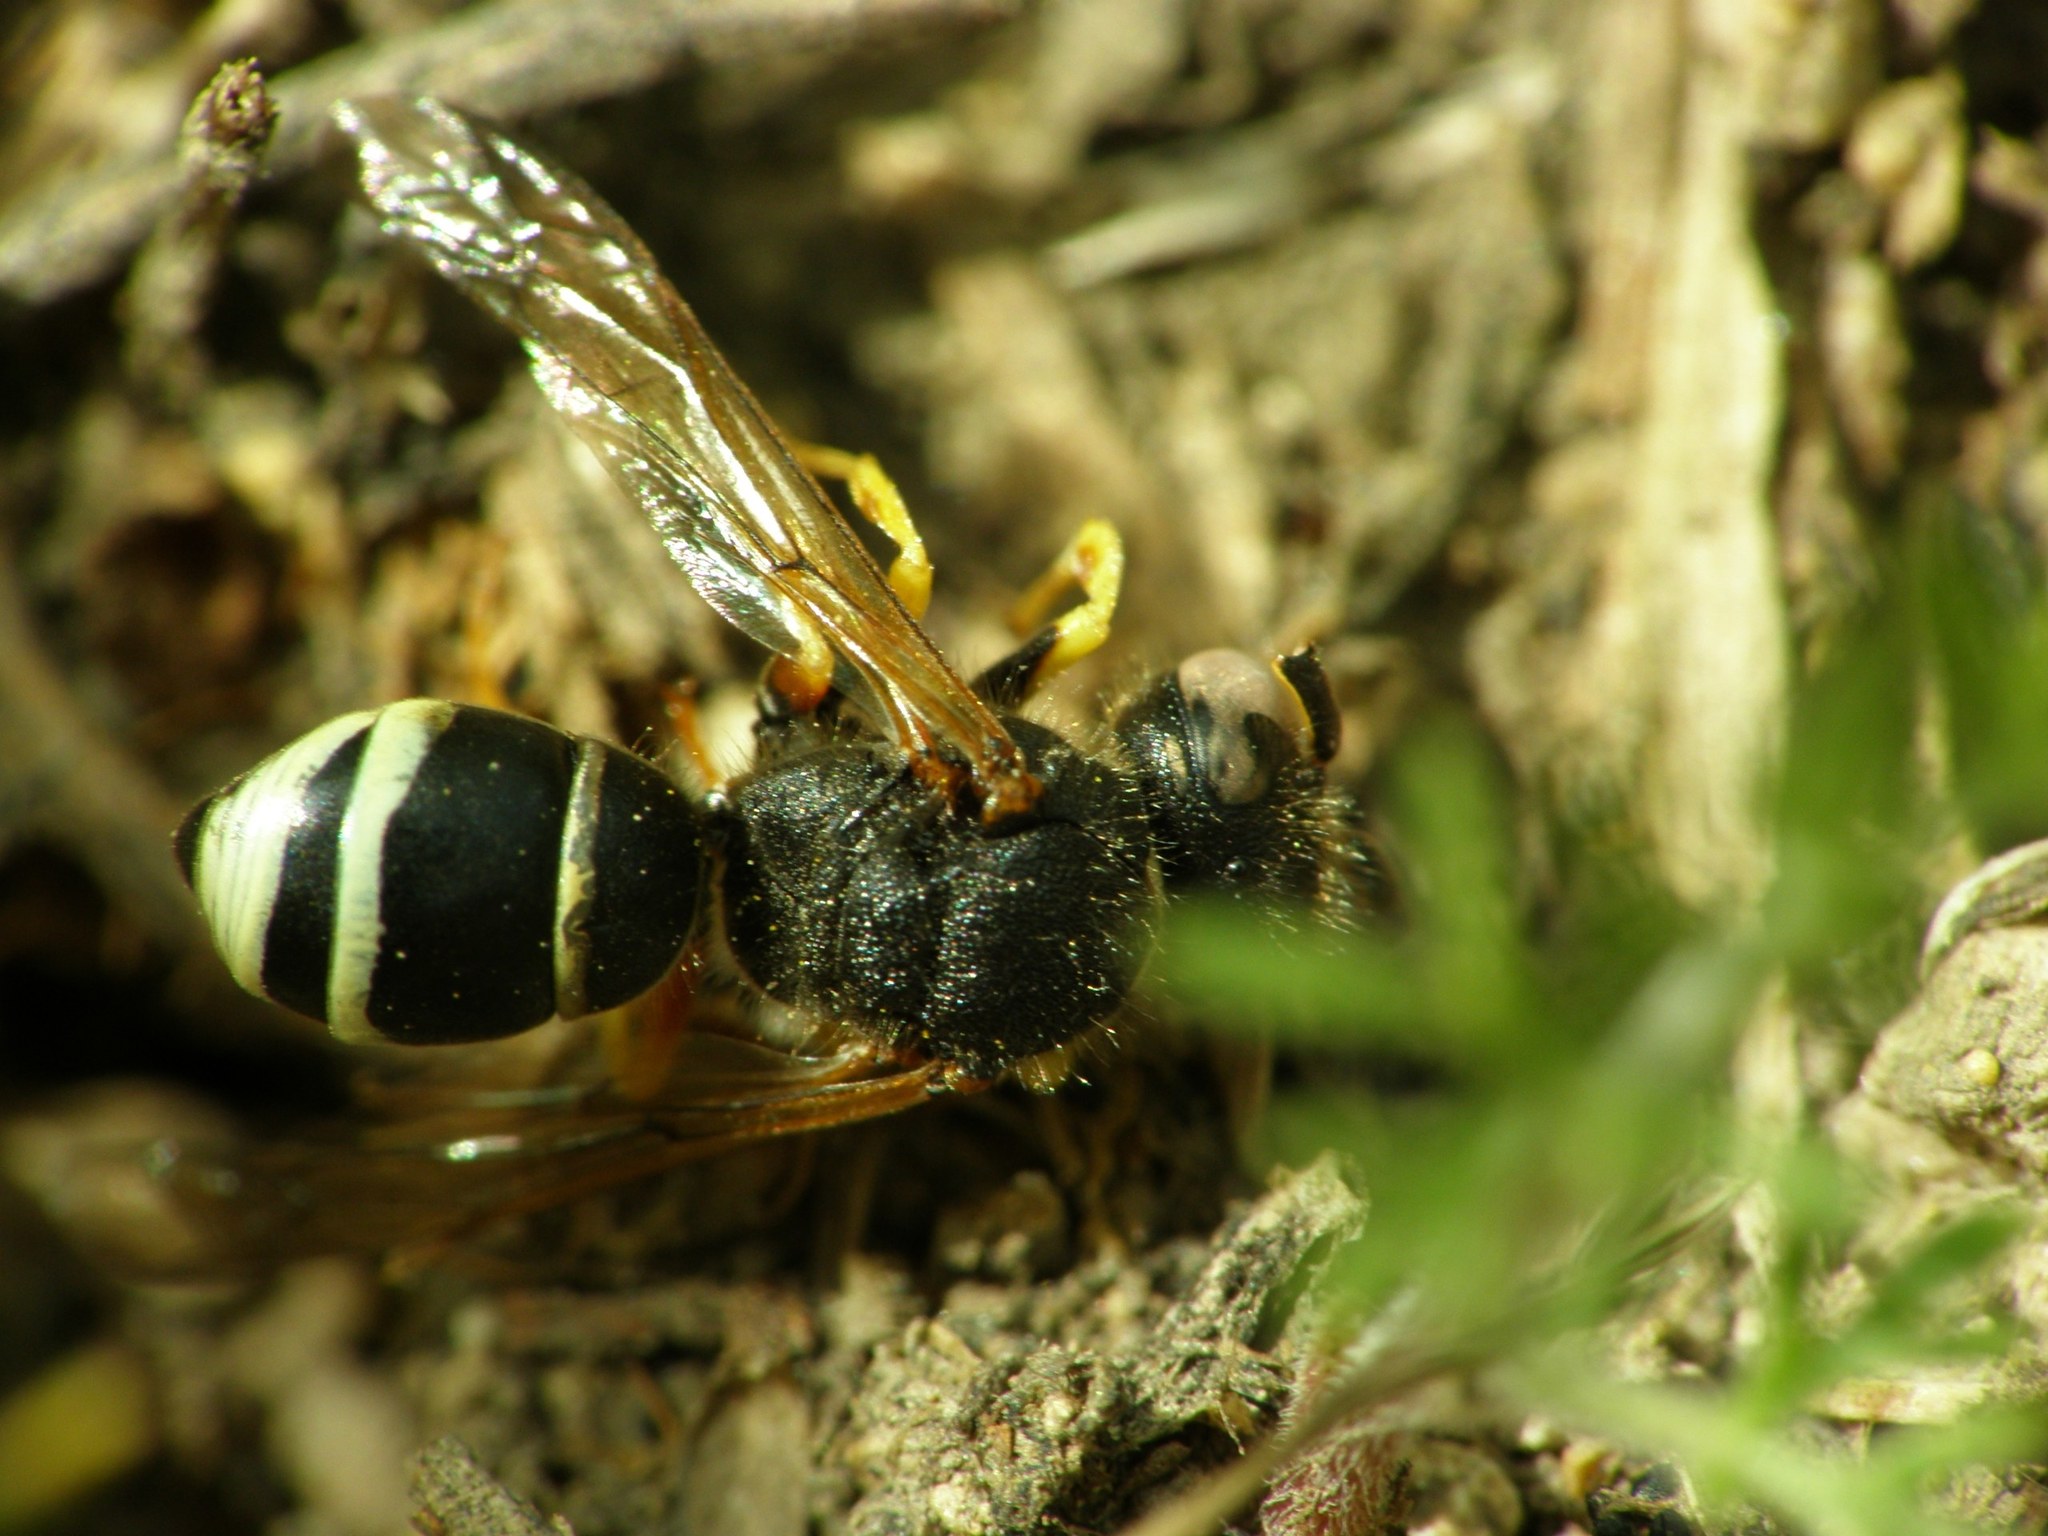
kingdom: Animalia
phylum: Arthropoda
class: Insecta
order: Hymenoptera
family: Vespidae
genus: Odynerus
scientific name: Odynerus melanocephalus
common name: Black headed mason wasp
